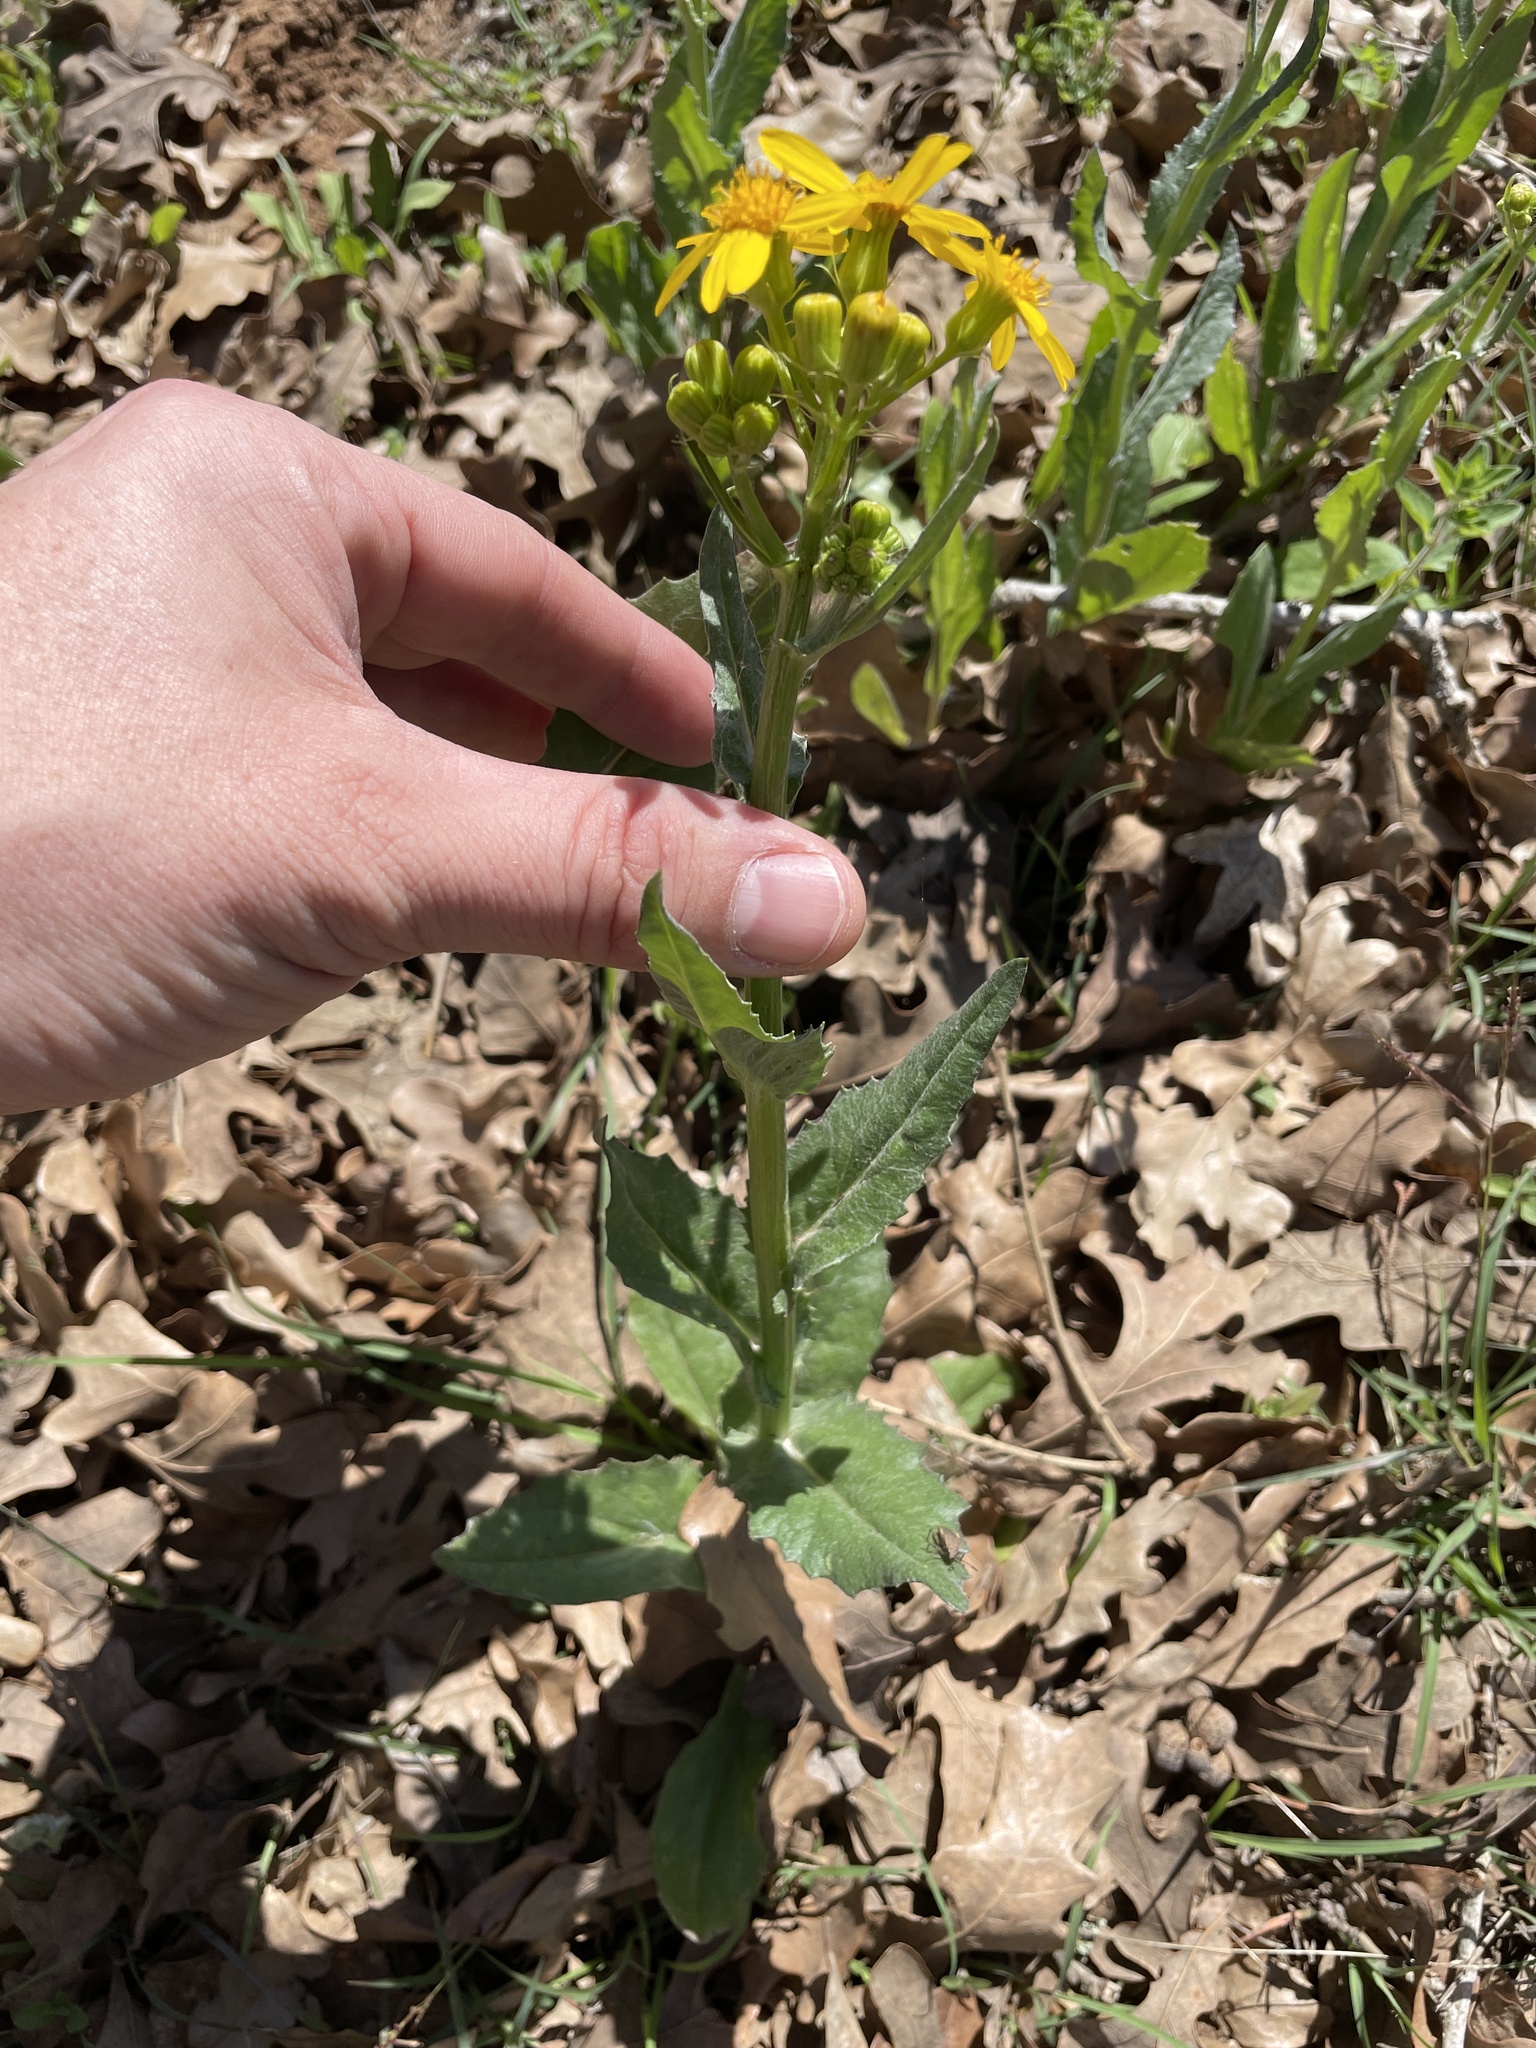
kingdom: Plantae
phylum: Tracheophyta
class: Magnoliopsida
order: Asterales
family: Asteraceae
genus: Senecio
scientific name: Senecio ampullaceus
